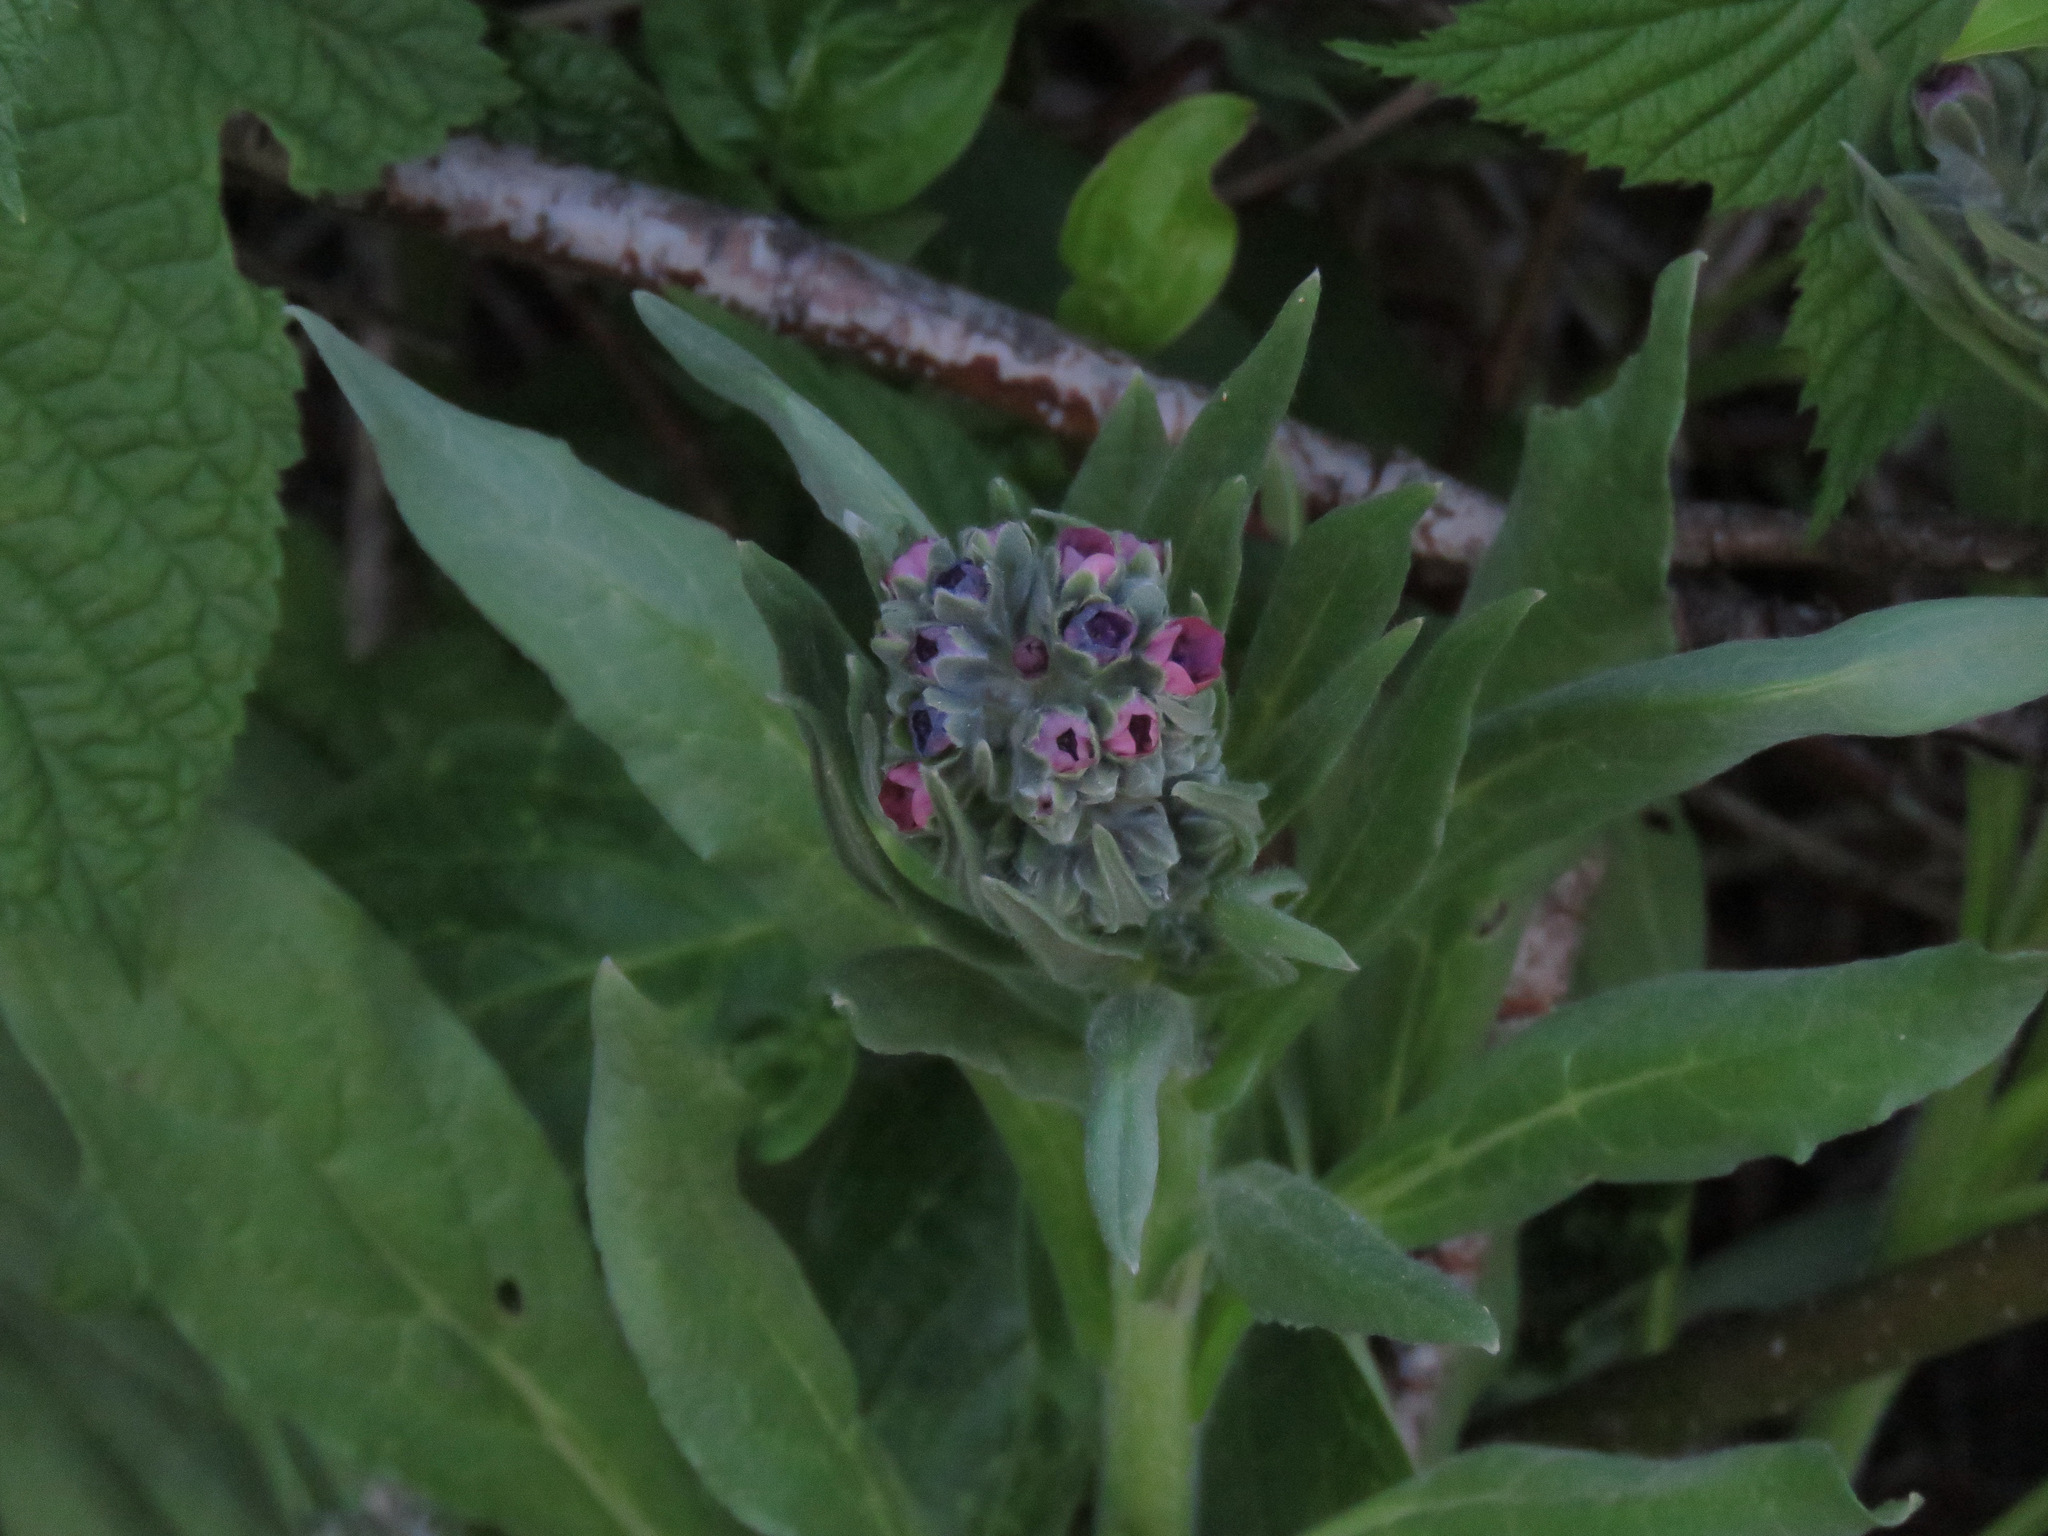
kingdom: Plantae
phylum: Tracheophyta
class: Magnoliopsida
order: Boraginales
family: Boraginaceae
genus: Cynoglossum
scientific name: Cynoglossum officinale
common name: Hound's-tongue
